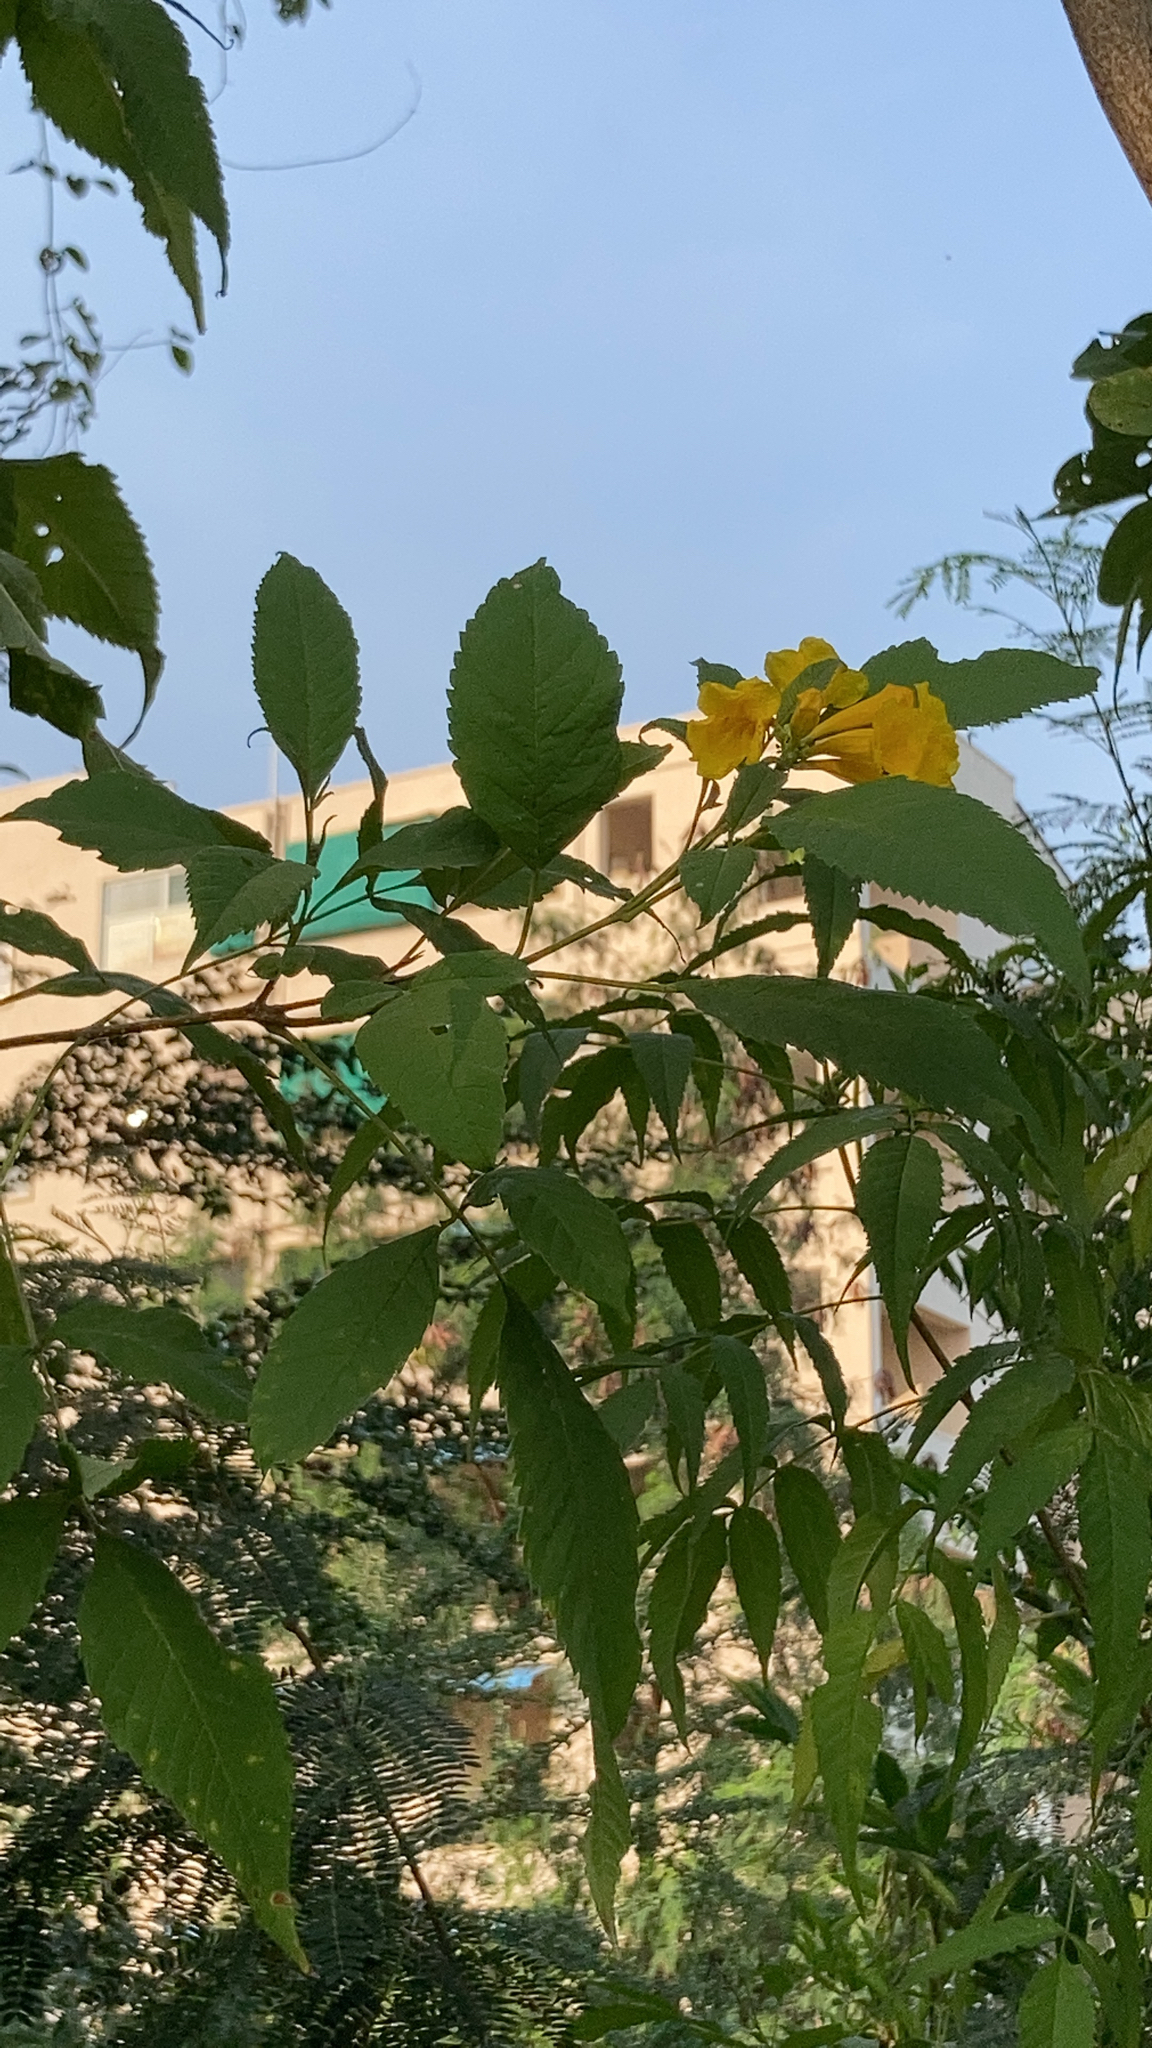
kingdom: Plantae
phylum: Tracheophyta
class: Magnoliopsida
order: Lamiales
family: Bignoniaceae
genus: Tecoma
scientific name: Tecoma stans
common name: Yellow trumpetbush
